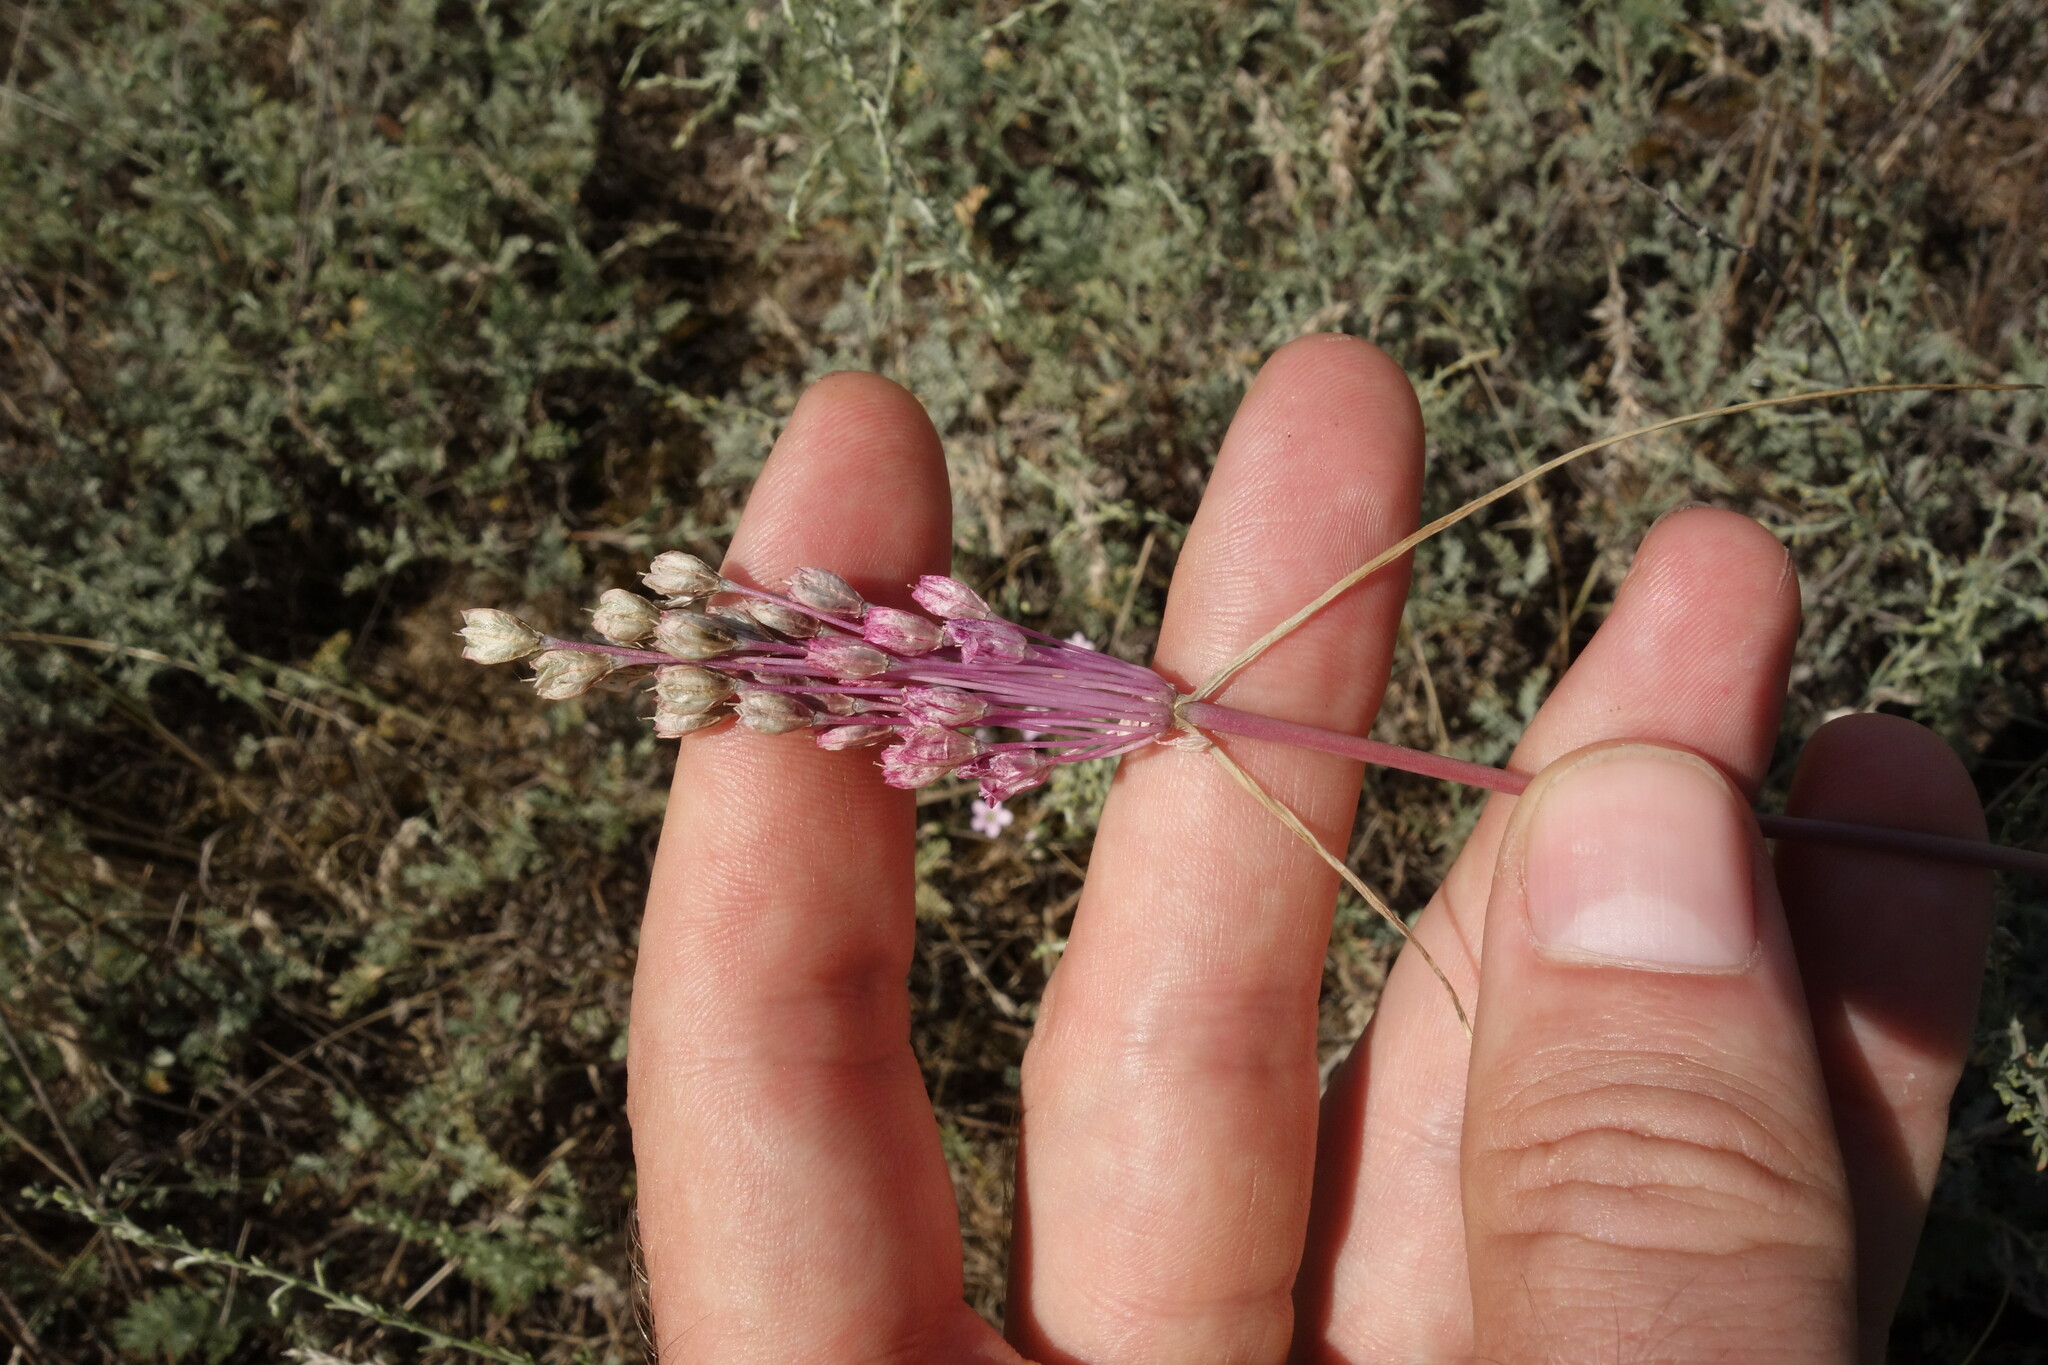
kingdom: Plantae
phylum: Tracheophyta
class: Liliopsida
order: Asparagales
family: Amaryllidaceae
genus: Allium
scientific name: Allium praescissum
